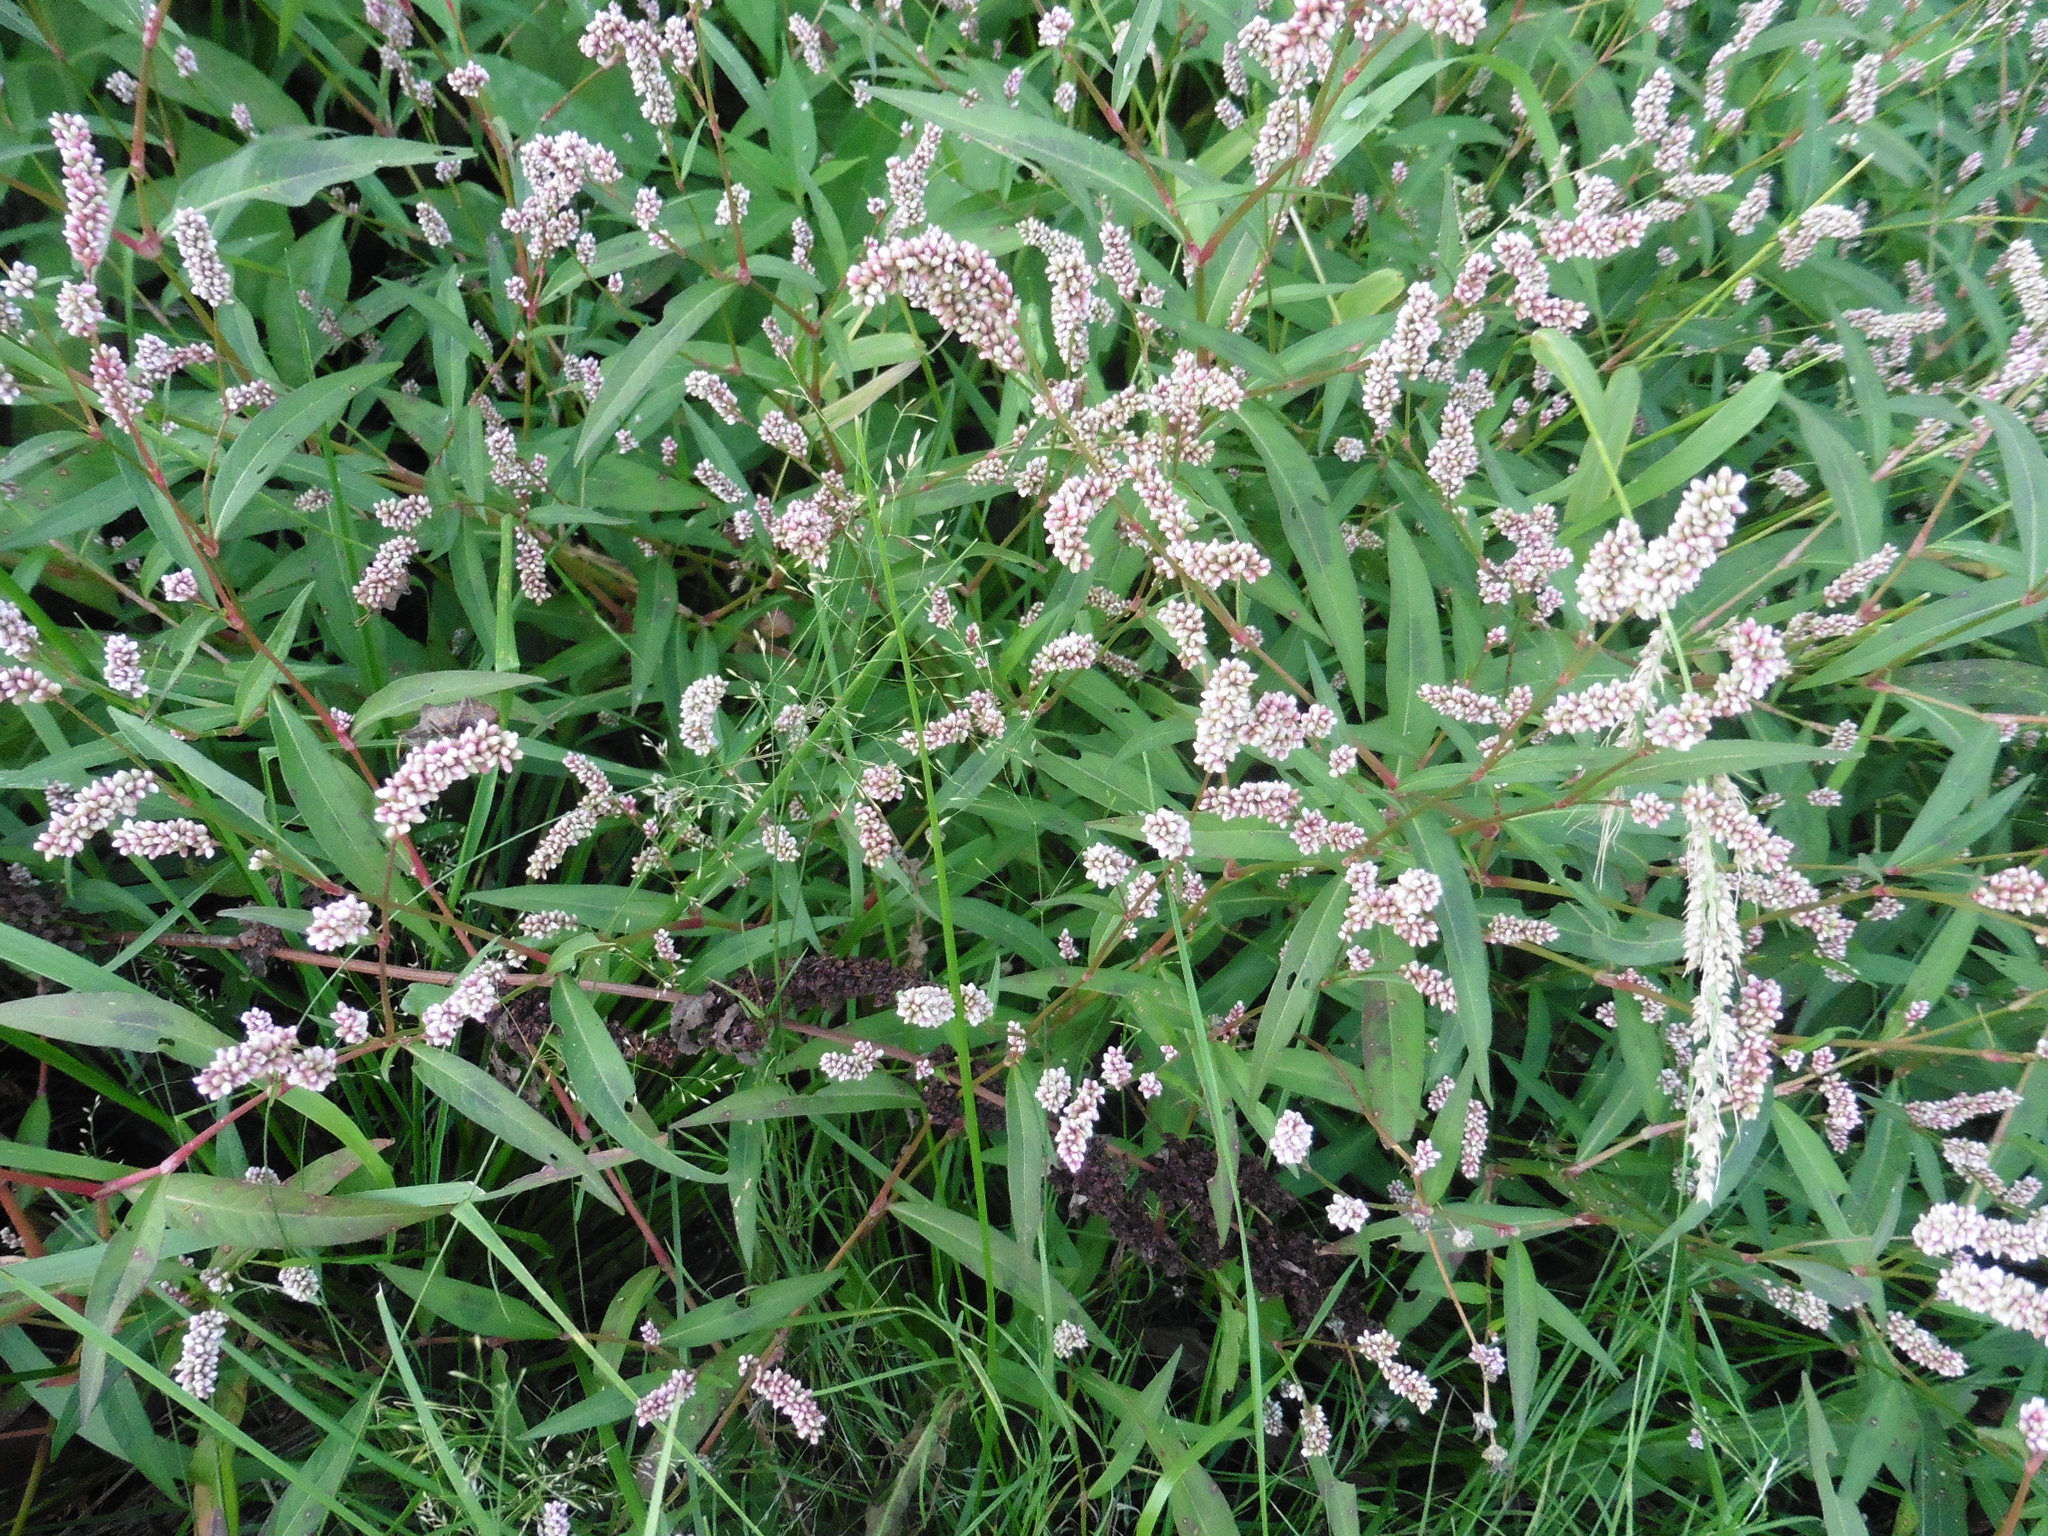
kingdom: Plantae
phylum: Tracheophyta
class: Magnoliopsida
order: Caryophyllales
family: Polygonaceae
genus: Persicaria
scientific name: Persicaria lapathifolia
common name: Curlytop knotweed
